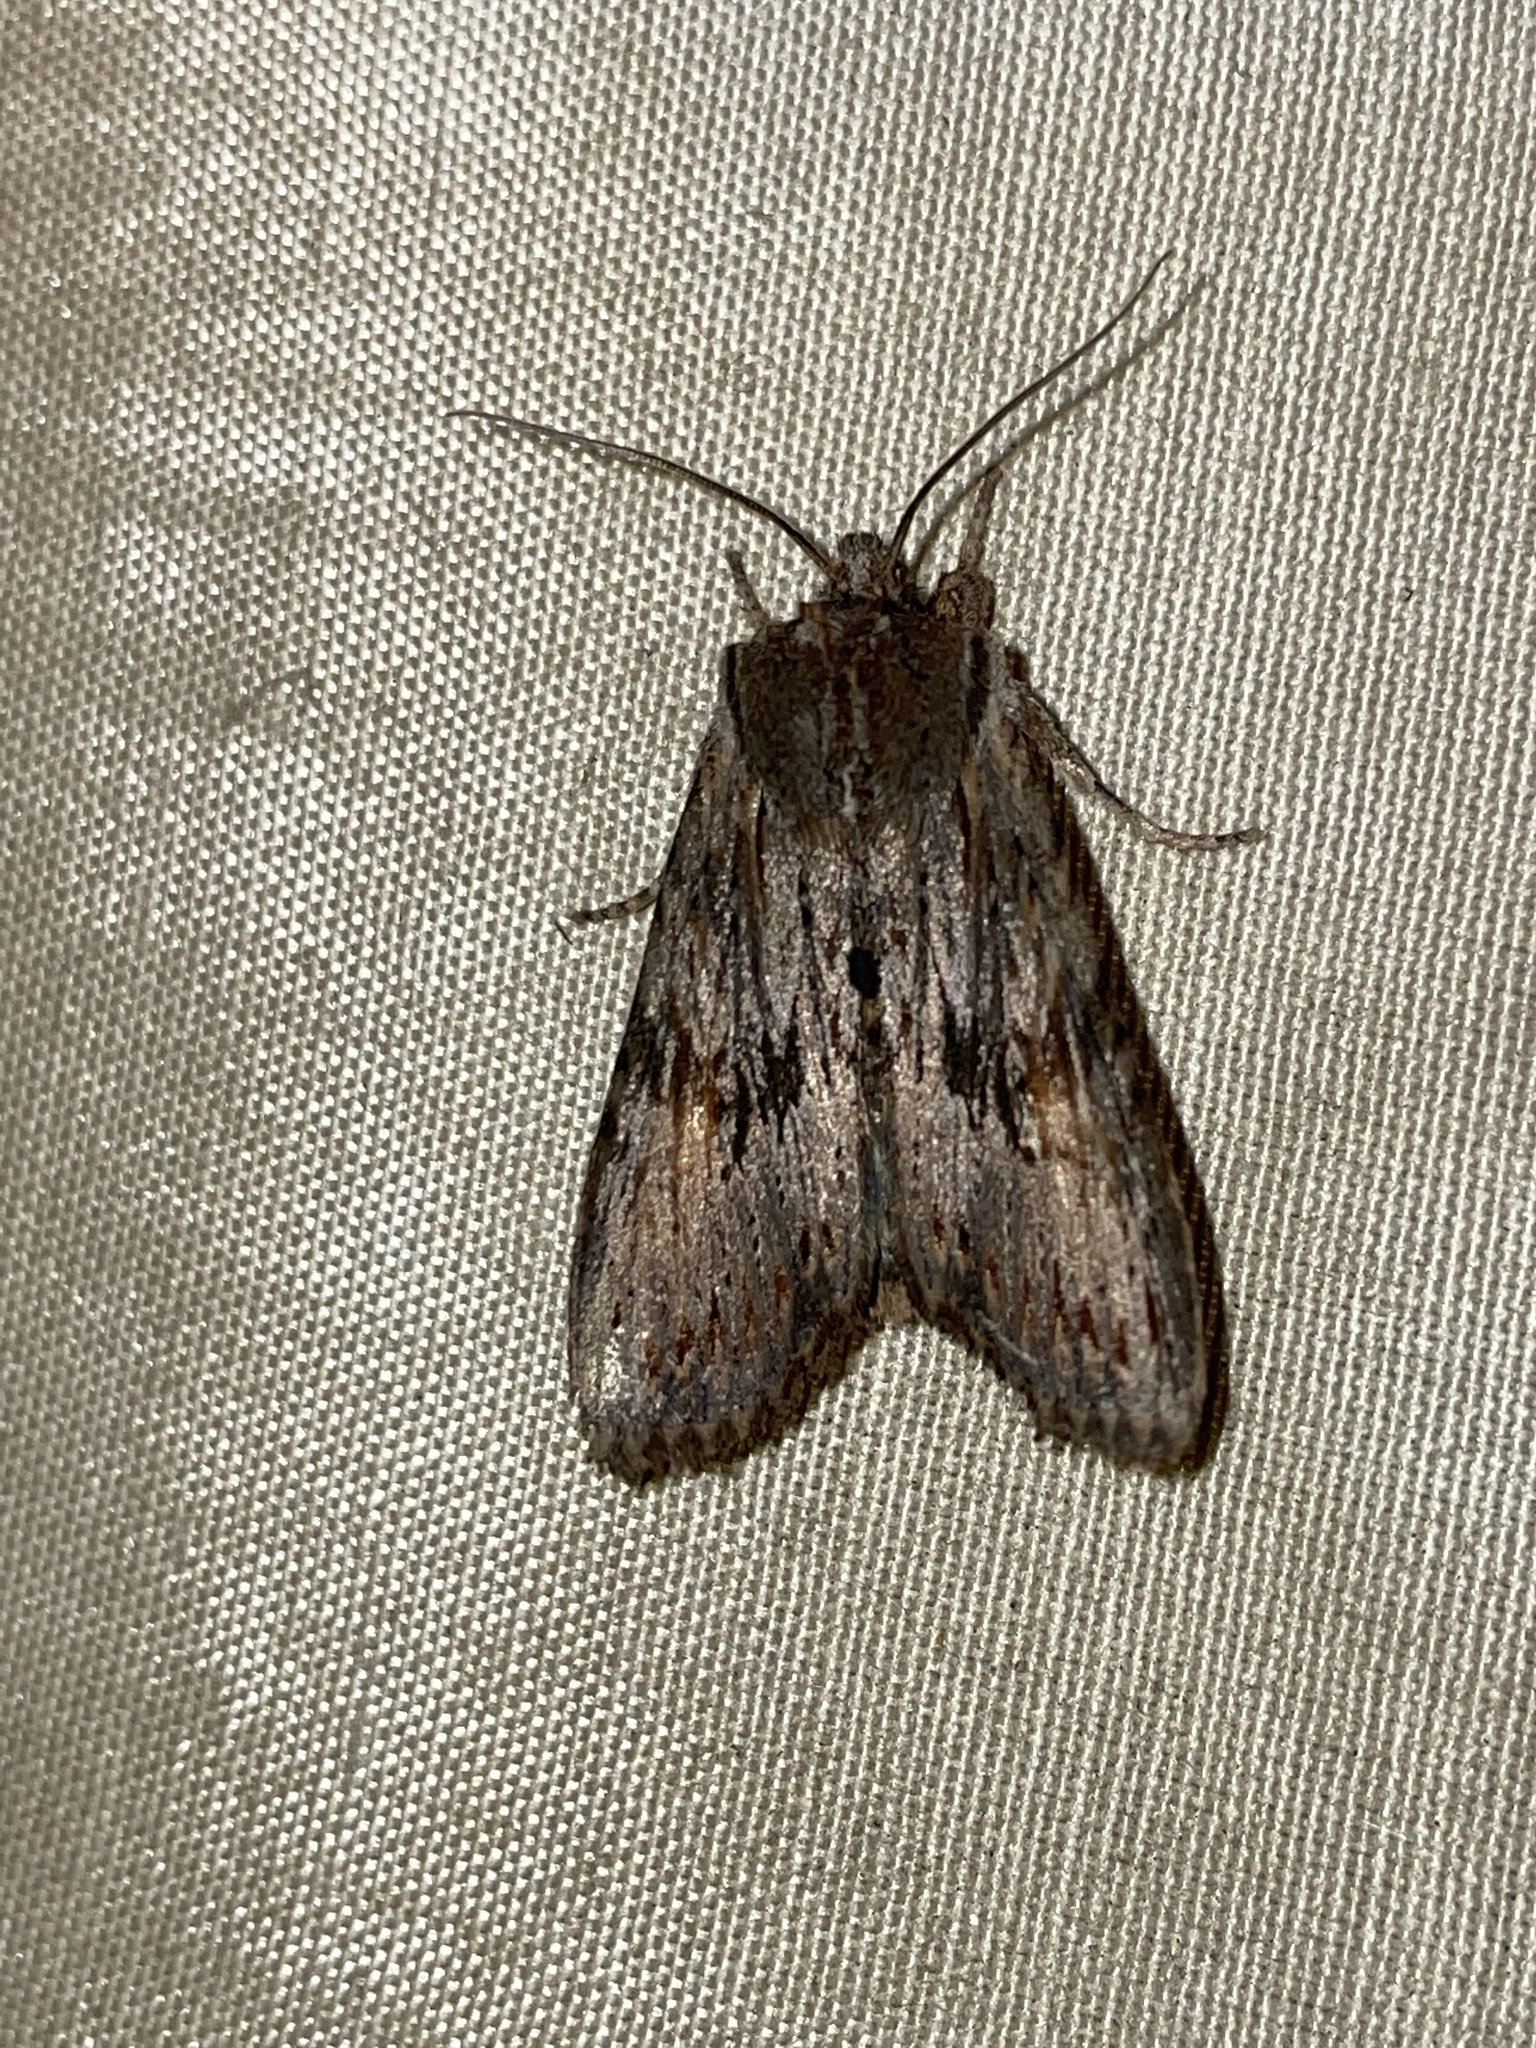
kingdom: Animalia
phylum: Arthropoda
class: Insecta
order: Lepidoptera
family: Noctuidae
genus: Lithophane
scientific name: Lithophane socia
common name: Pale pinion
